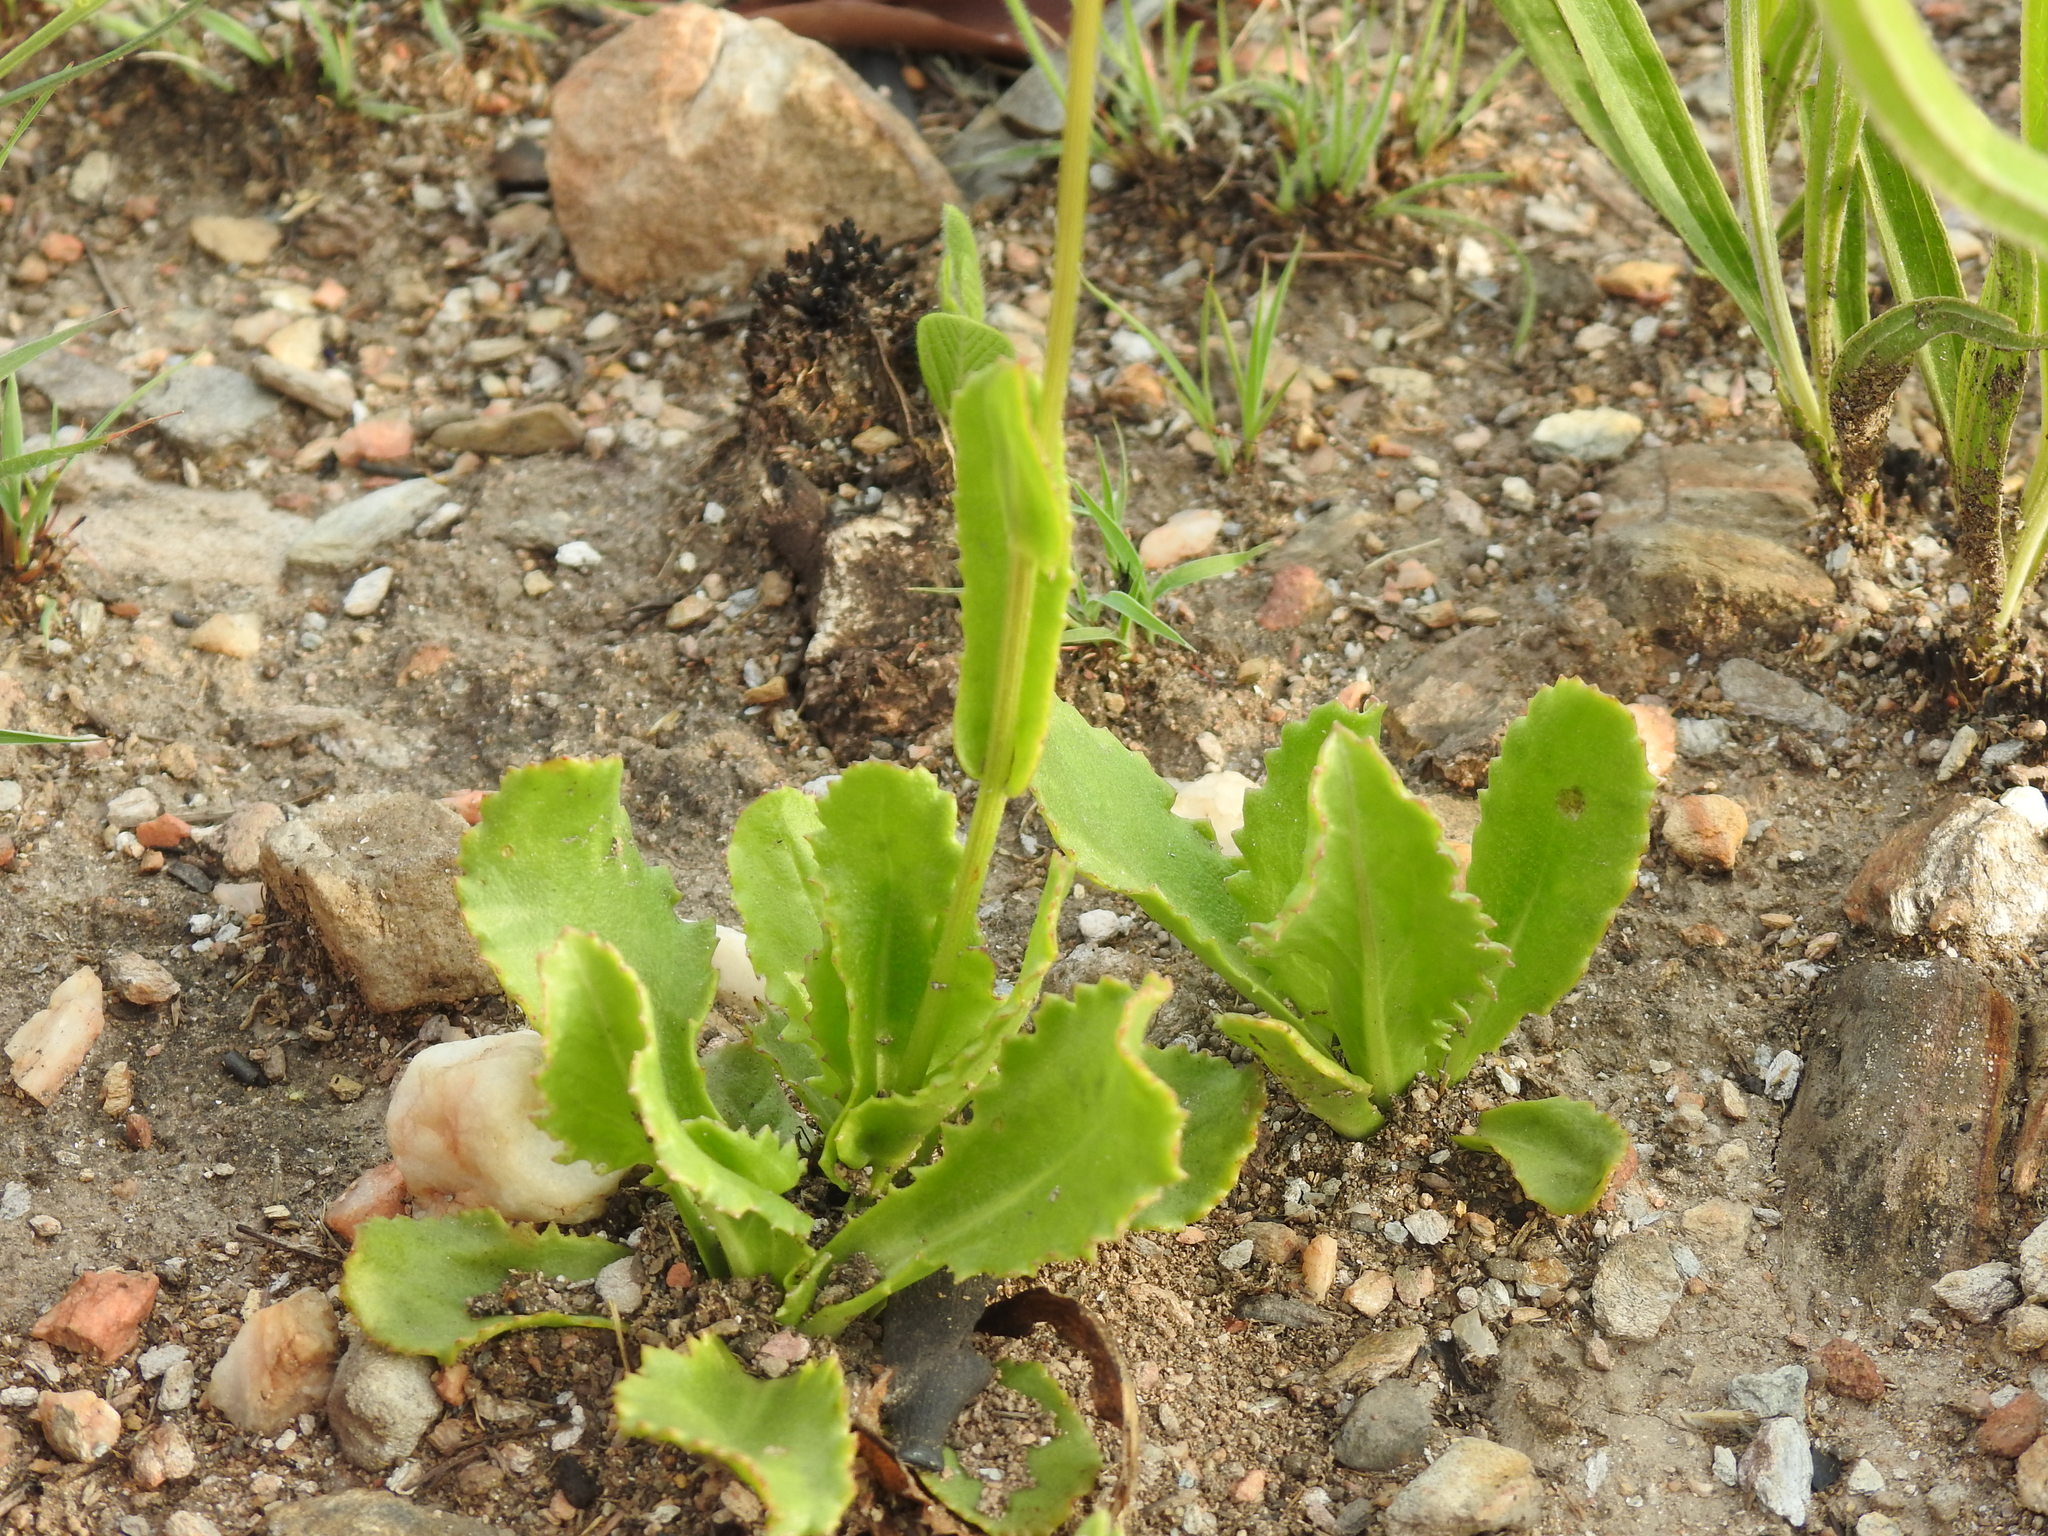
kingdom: Plantae
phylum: Tracheophyta
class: Magnoliopsida
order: Asterales
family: Asteraceae
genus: Senecio
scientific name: Senecio erubescens
